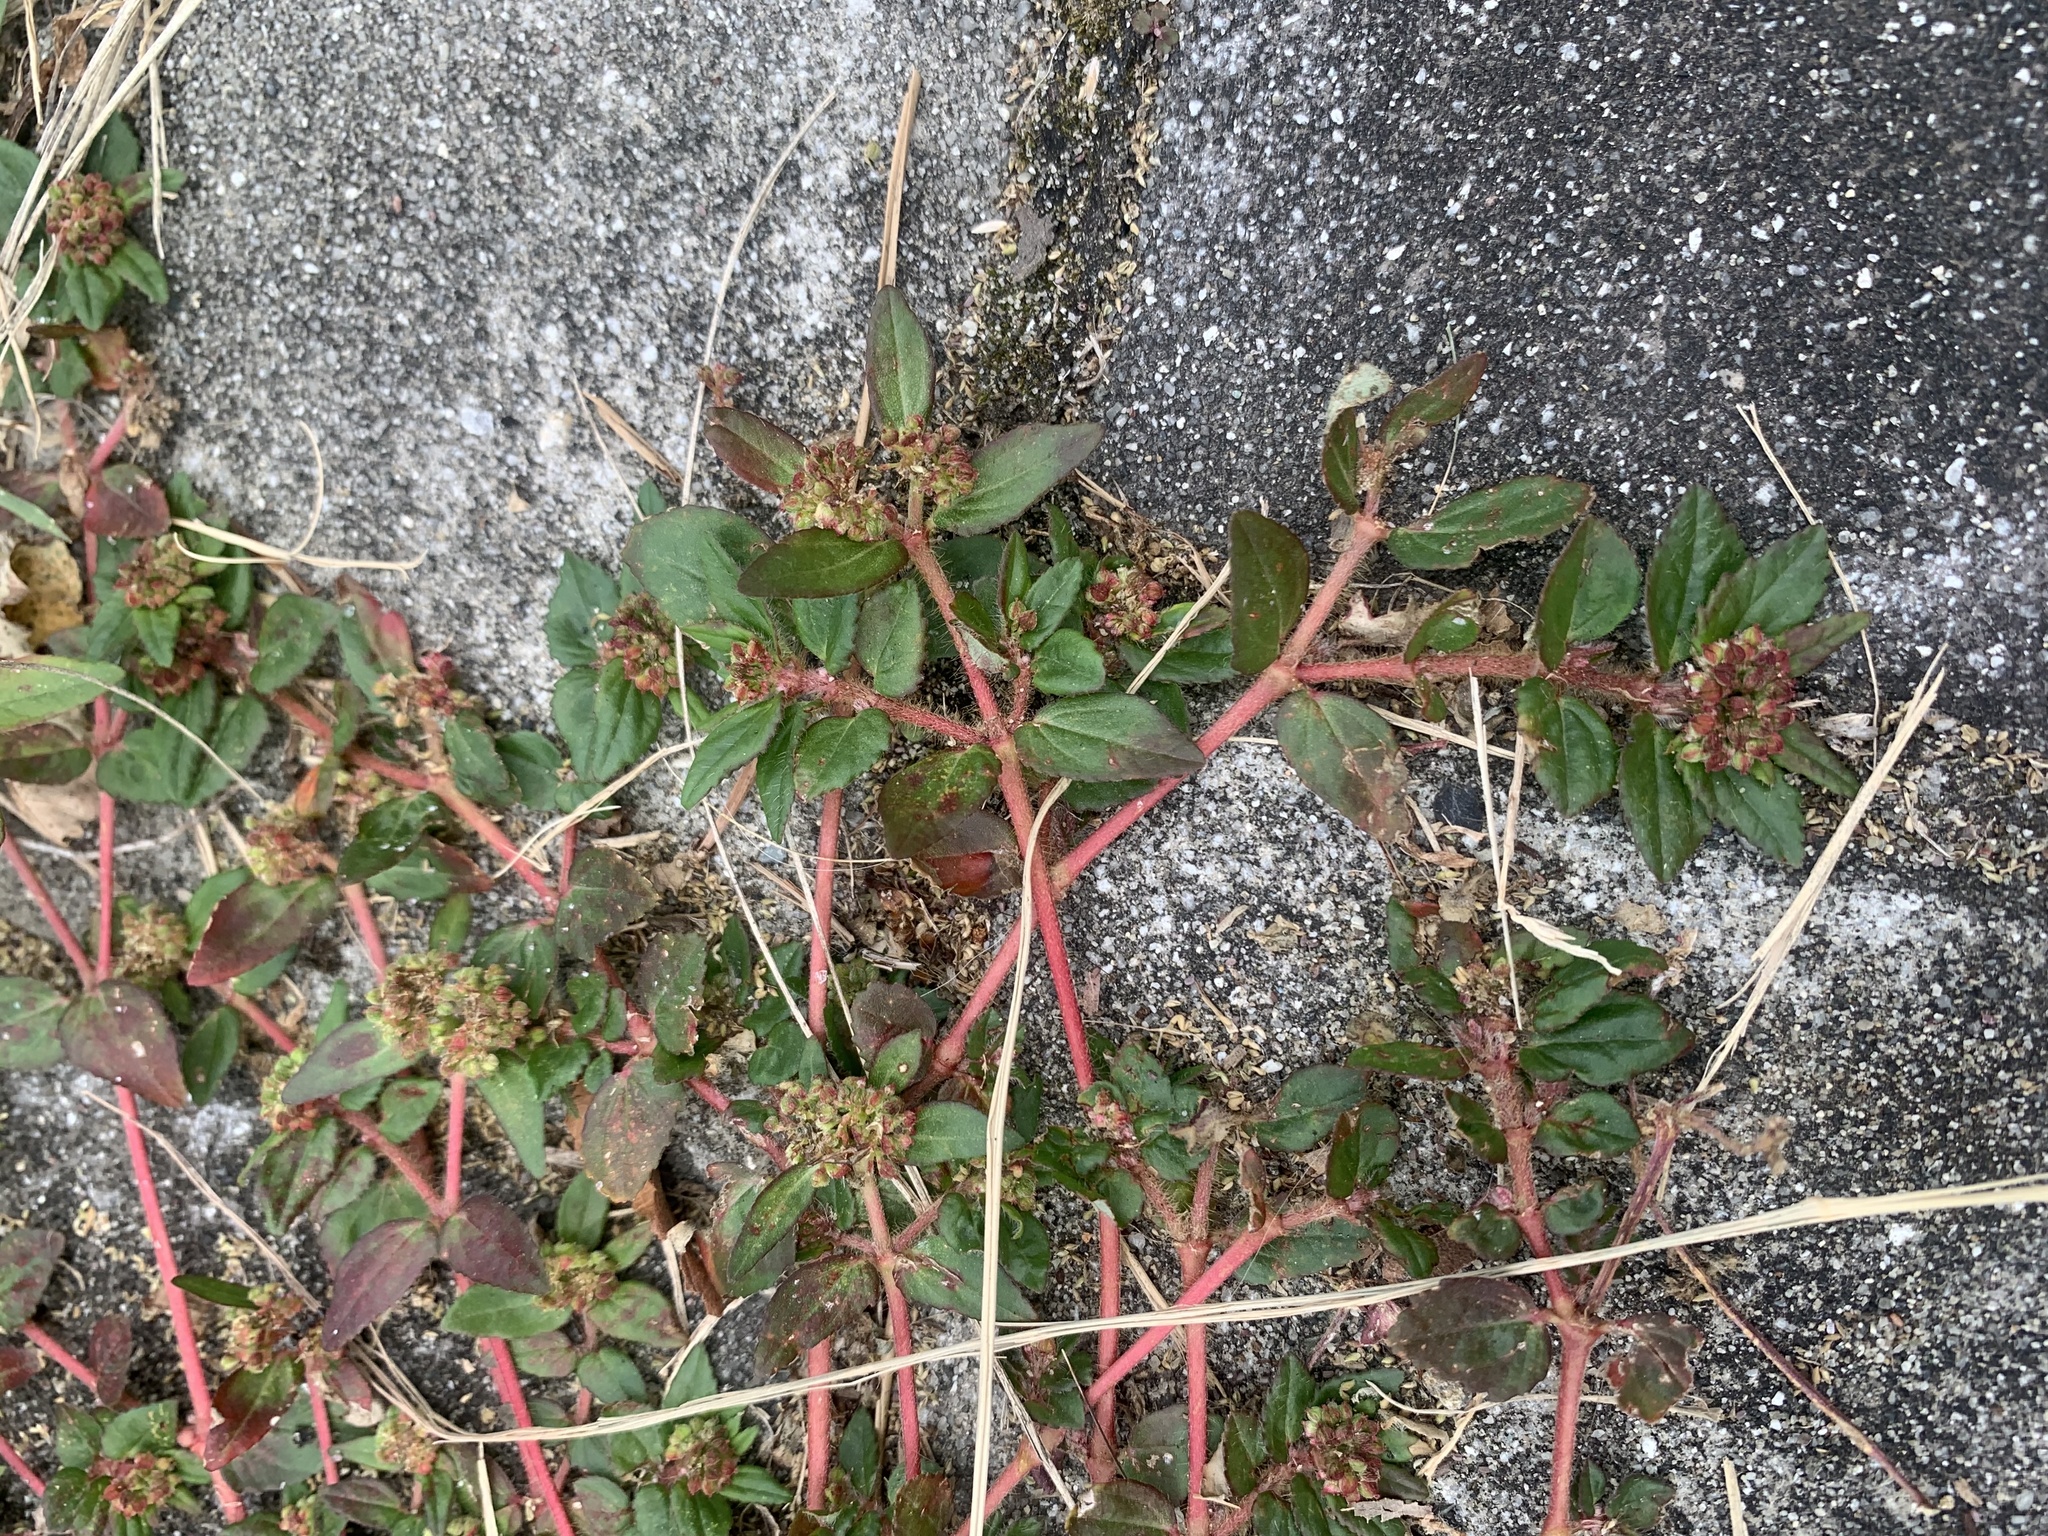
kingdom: Plantae
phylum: Tracheophyta
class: Magnoliopsida
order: Malpighiales
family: Euphorbiaceae
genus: Euphorbia
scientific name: Euphorbia ophthalmica
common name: Florida hammock sandmat
